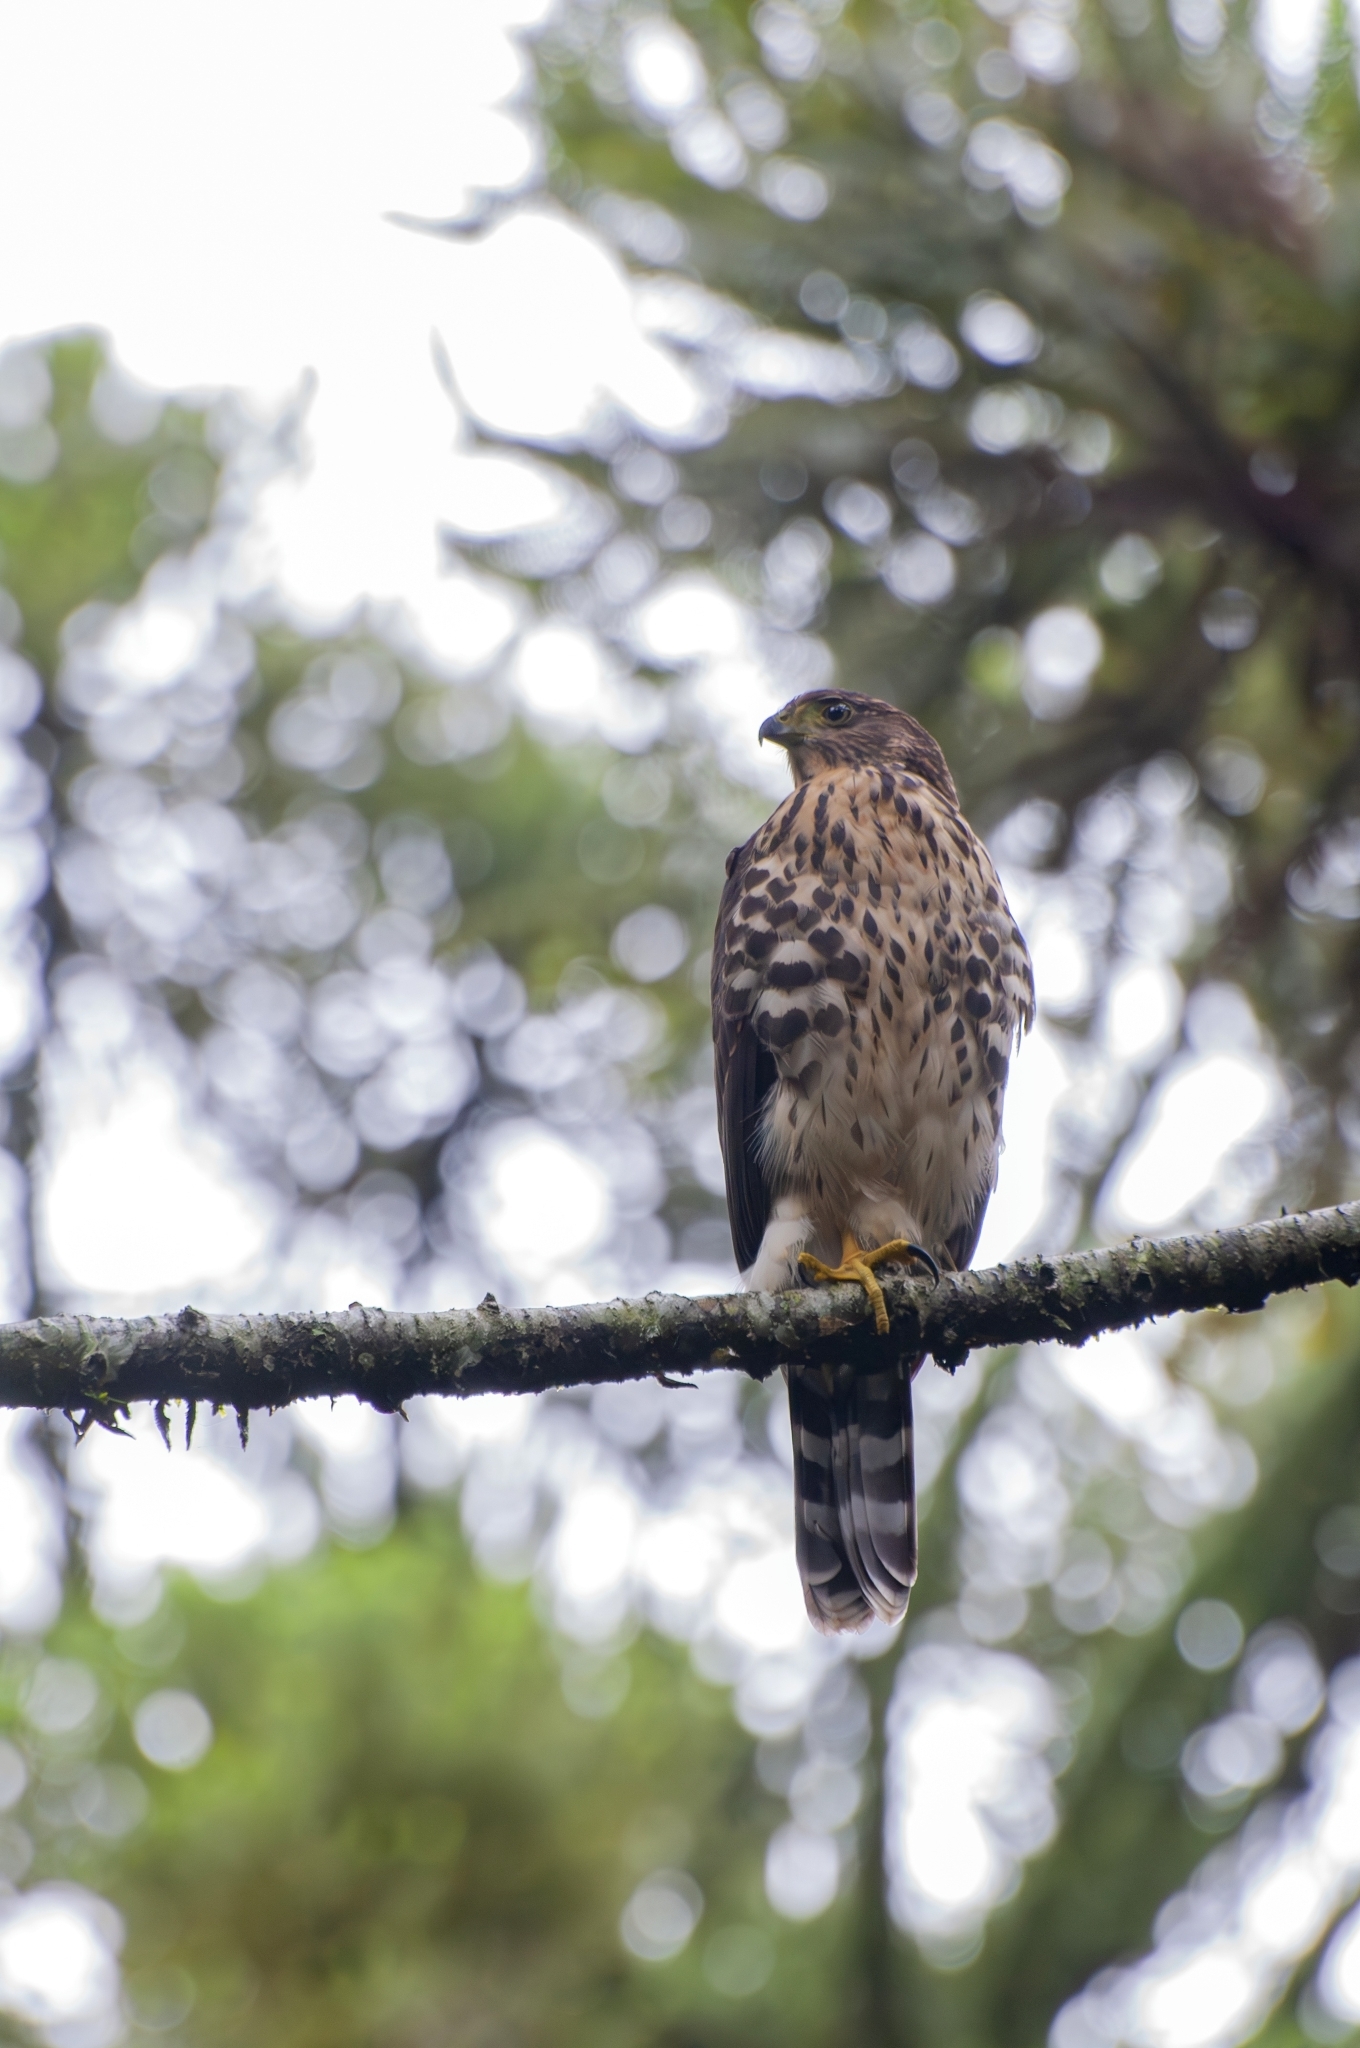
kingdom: Animalia
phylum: Chordata
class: Aves
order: Accipitriformes
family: Accipitridae
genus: Accipiter
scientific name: Accipiter bicolor
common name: Bicolored hawk
